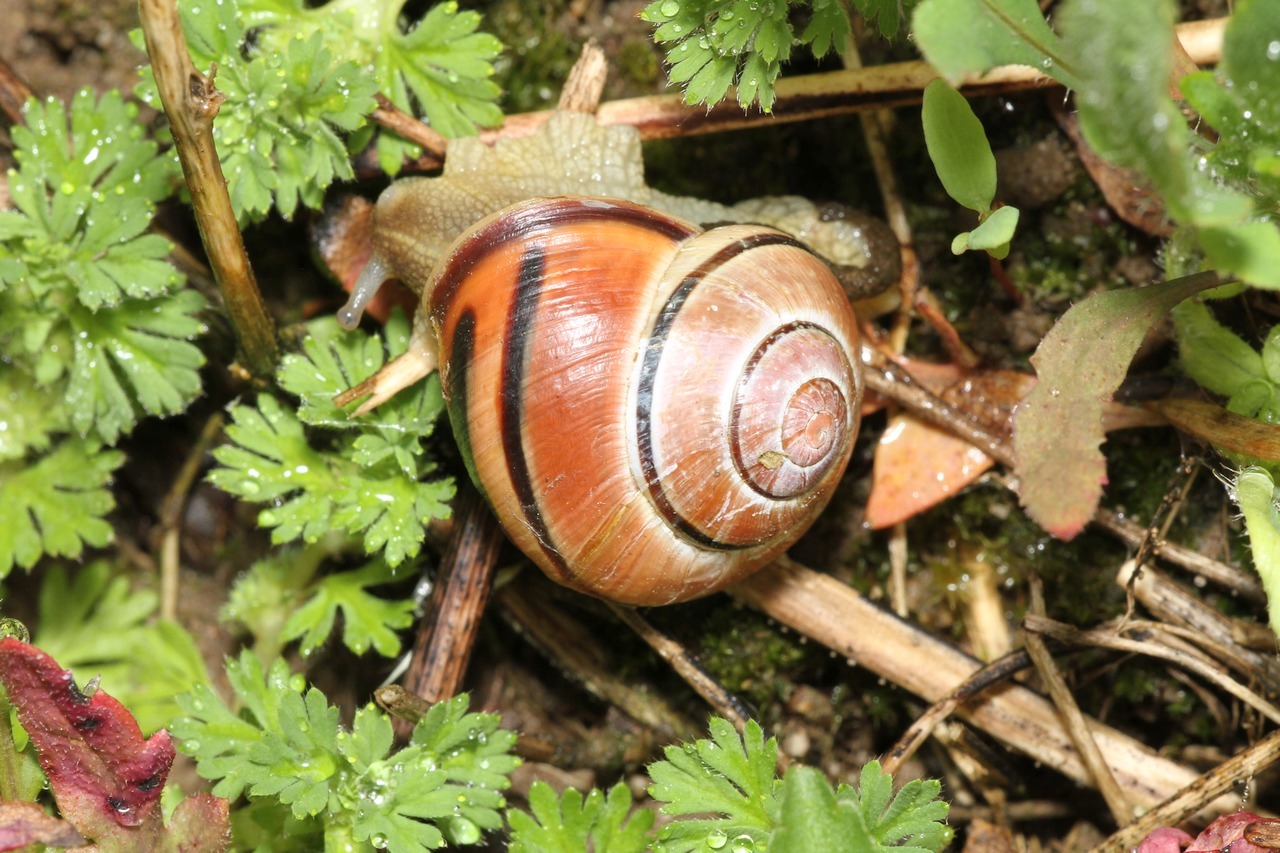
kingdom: Animalia
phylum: Mollusca
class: Gastropoda
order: Stylommatophora
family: Helicidae
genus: Cepaea
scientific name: Cepaea nemoralis
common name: Grovesnail
